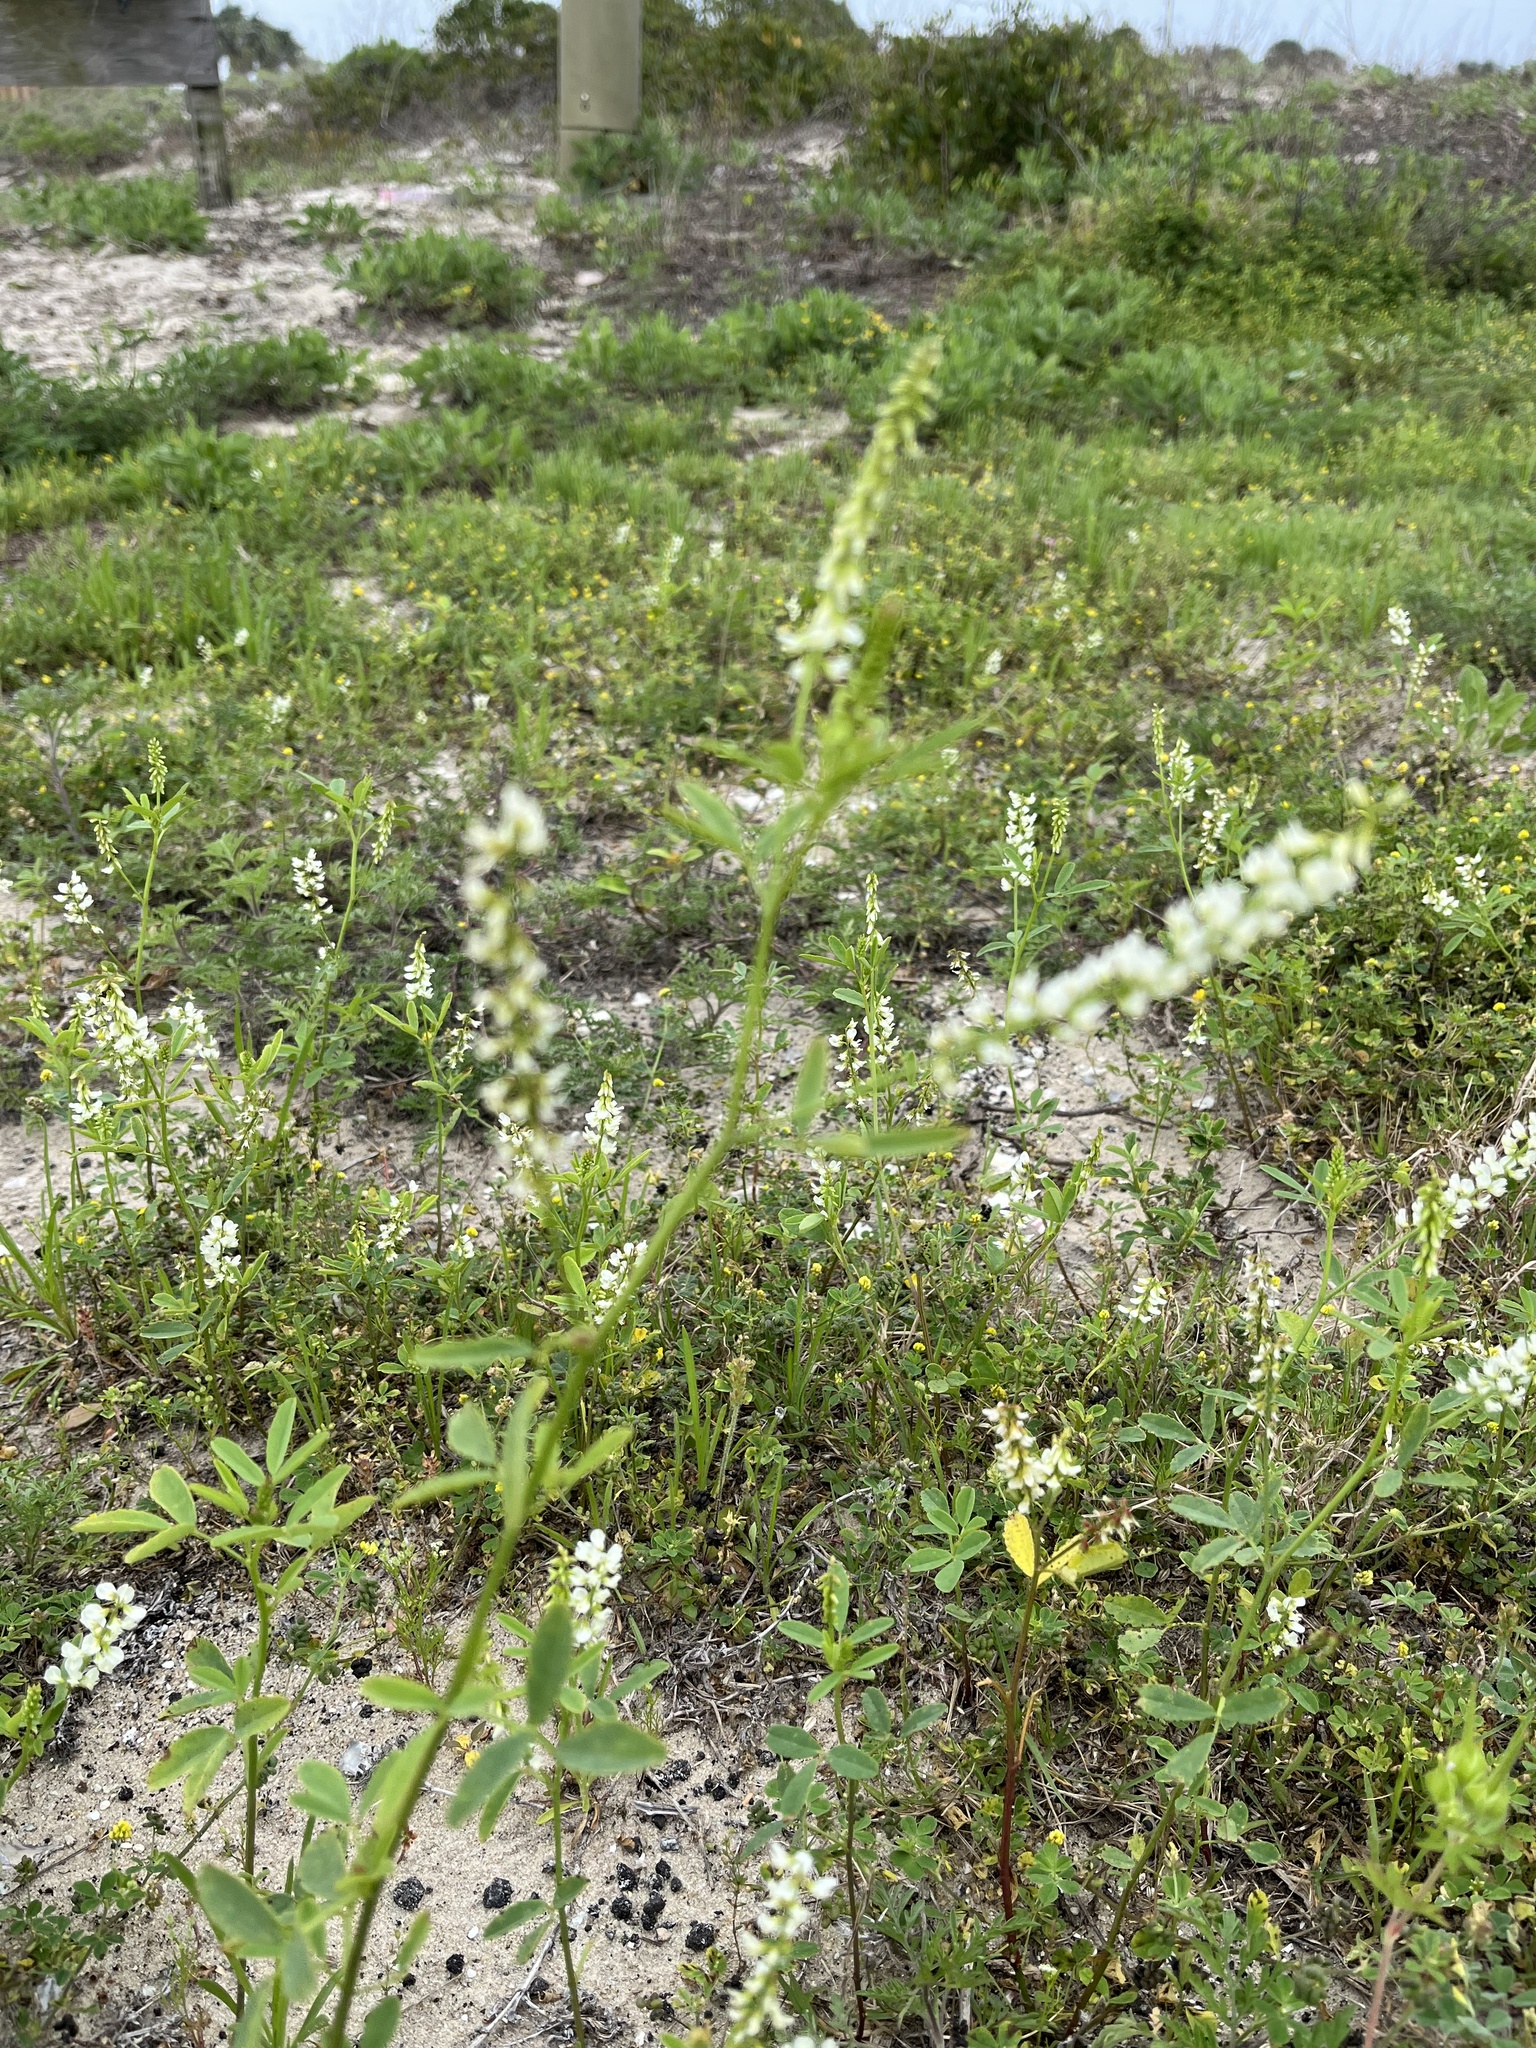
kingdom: Plantae
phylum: Tracheophyta
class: Magnoliopsida
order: Fabales
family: Fabaceae
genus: Melilotus
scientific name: Melilotus albus
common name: White melilot
